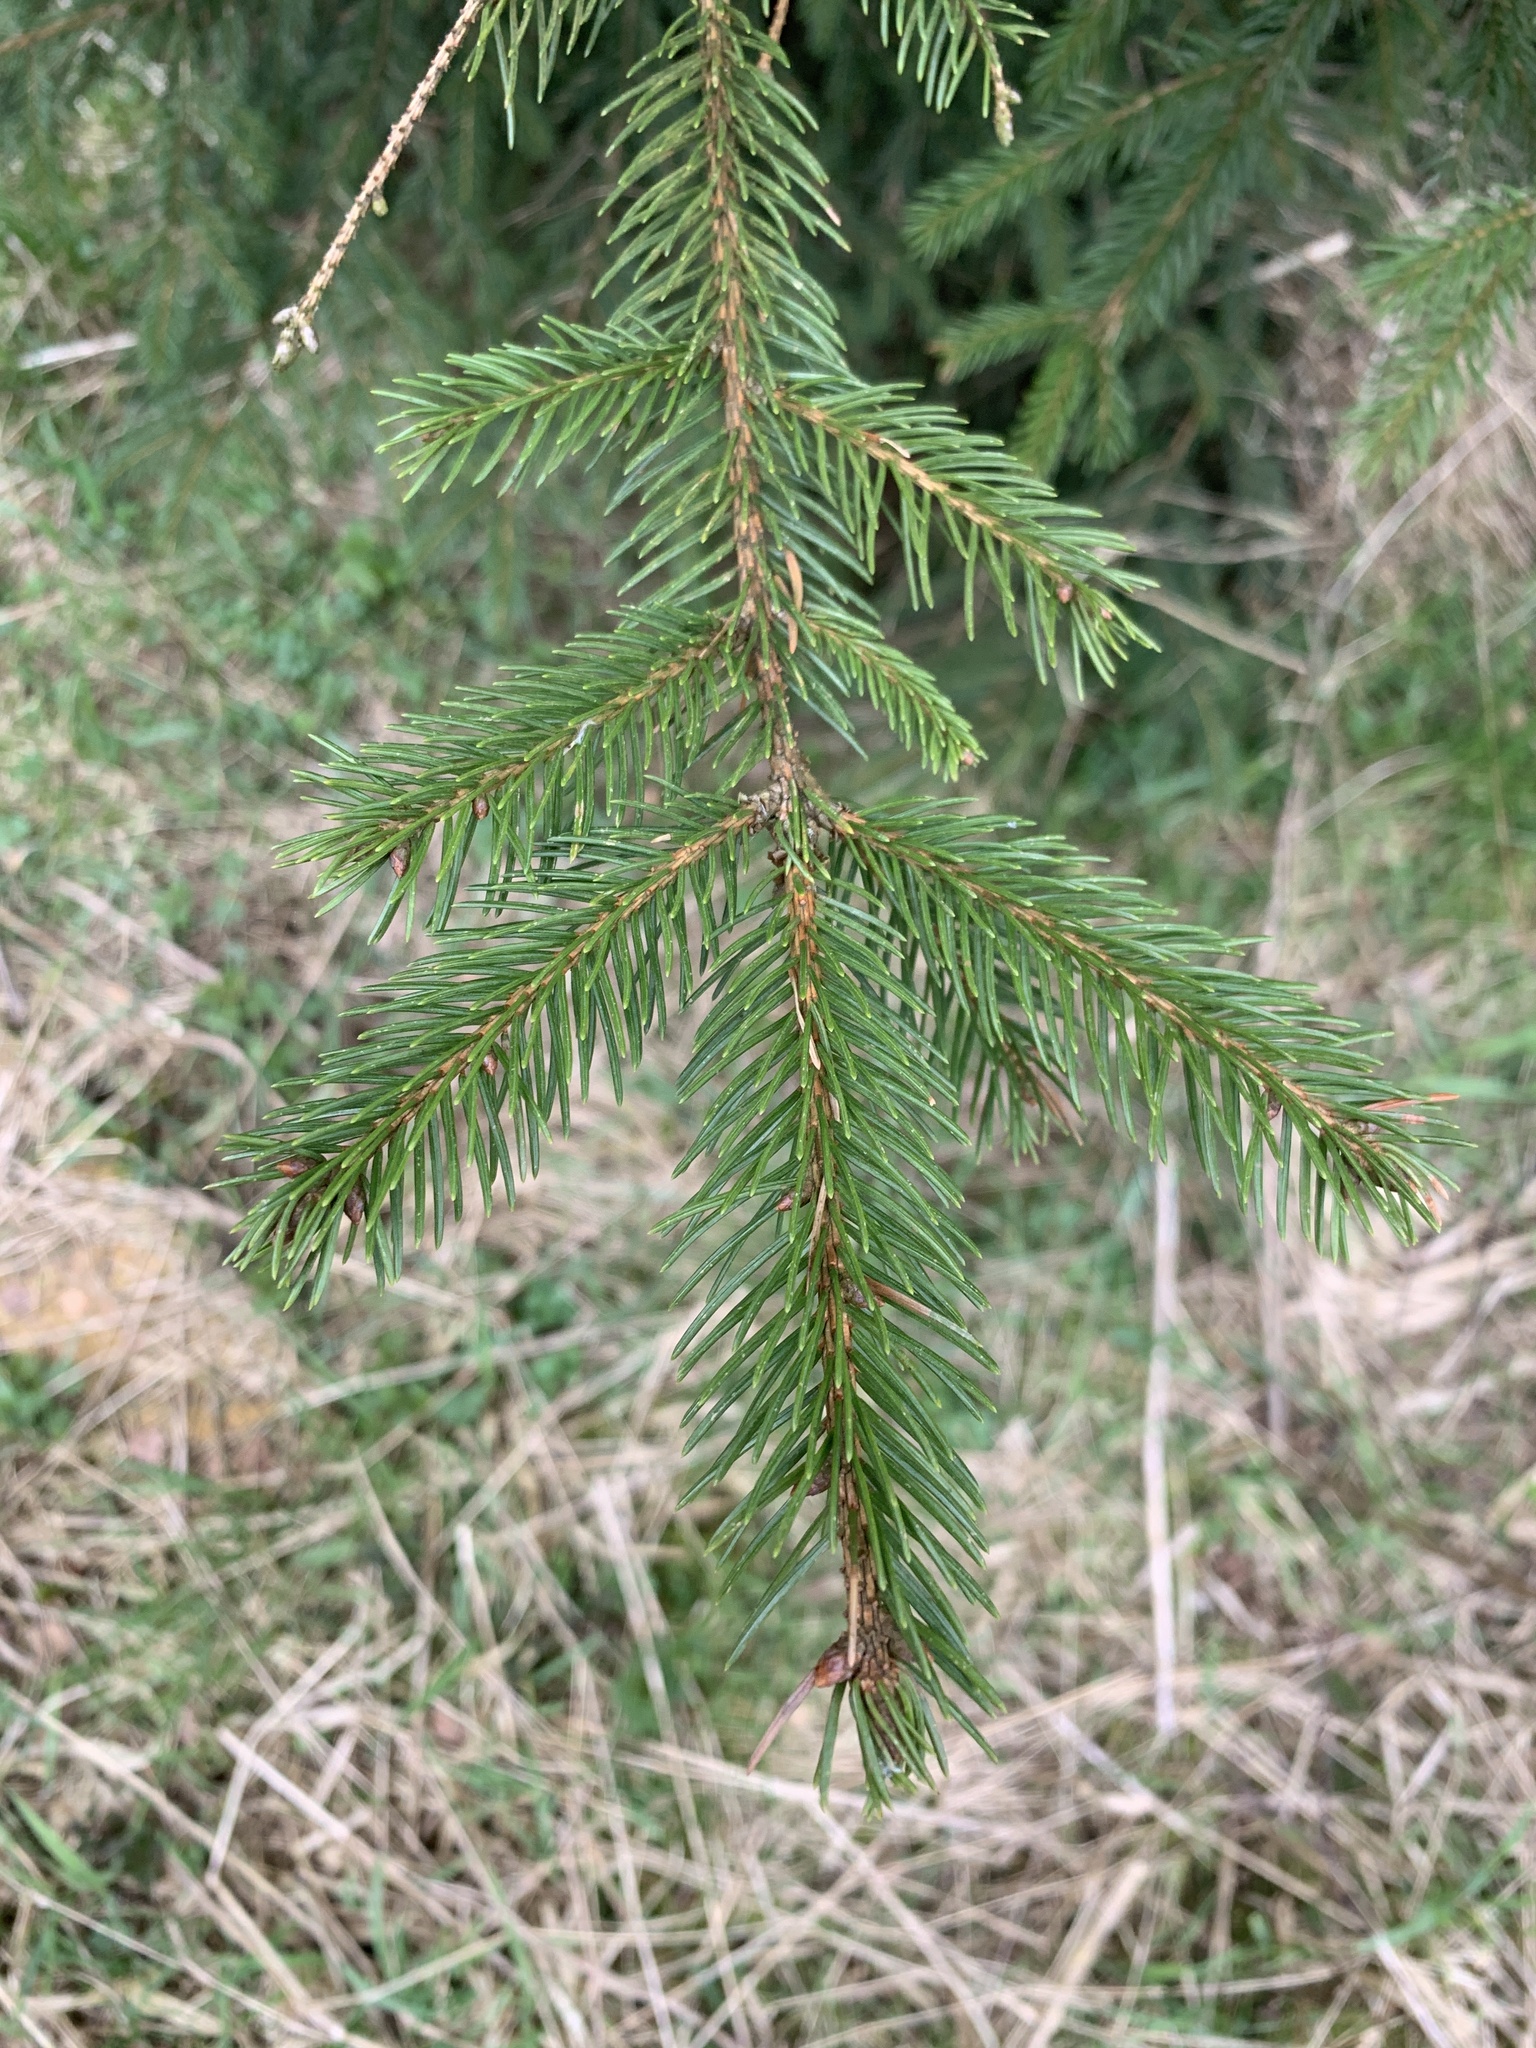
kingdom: Plantae
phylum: Tracheophyta
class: Pinopsida
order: Pinales
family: Pinaceae
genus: Picea
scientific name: Picea abies
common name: Norway spruce
